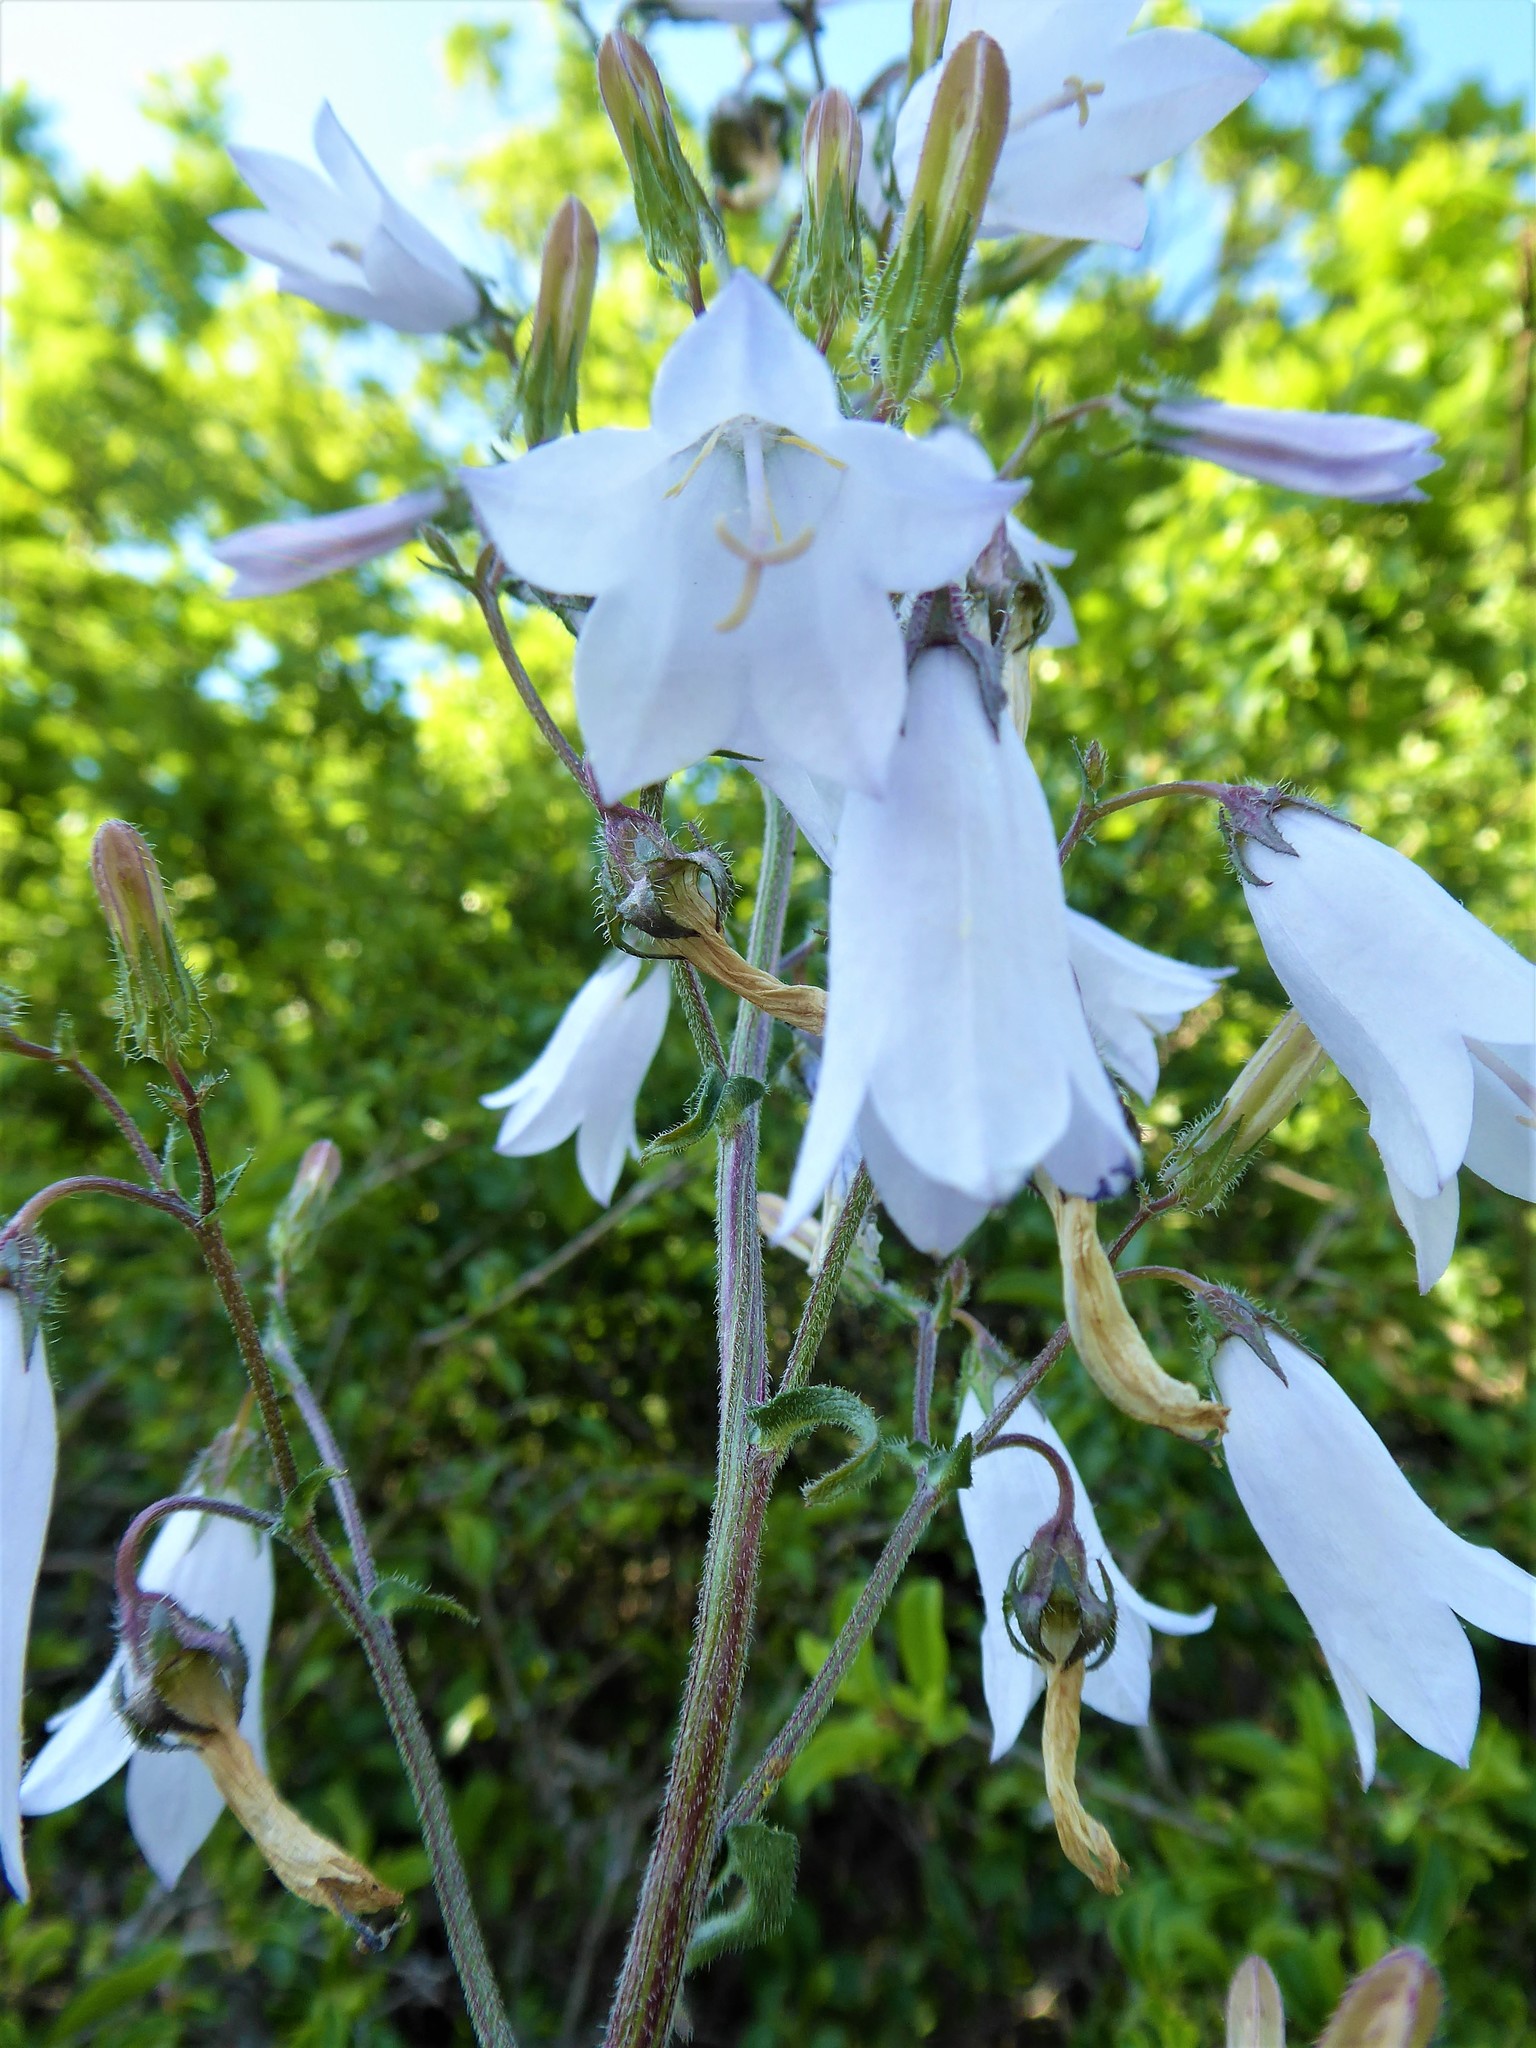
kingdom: Plantae
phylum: Tracheophyta
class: Magnoliopsida
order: Asterales
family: Campanulaceae
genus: Campanula
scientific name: Campanula sibirica
